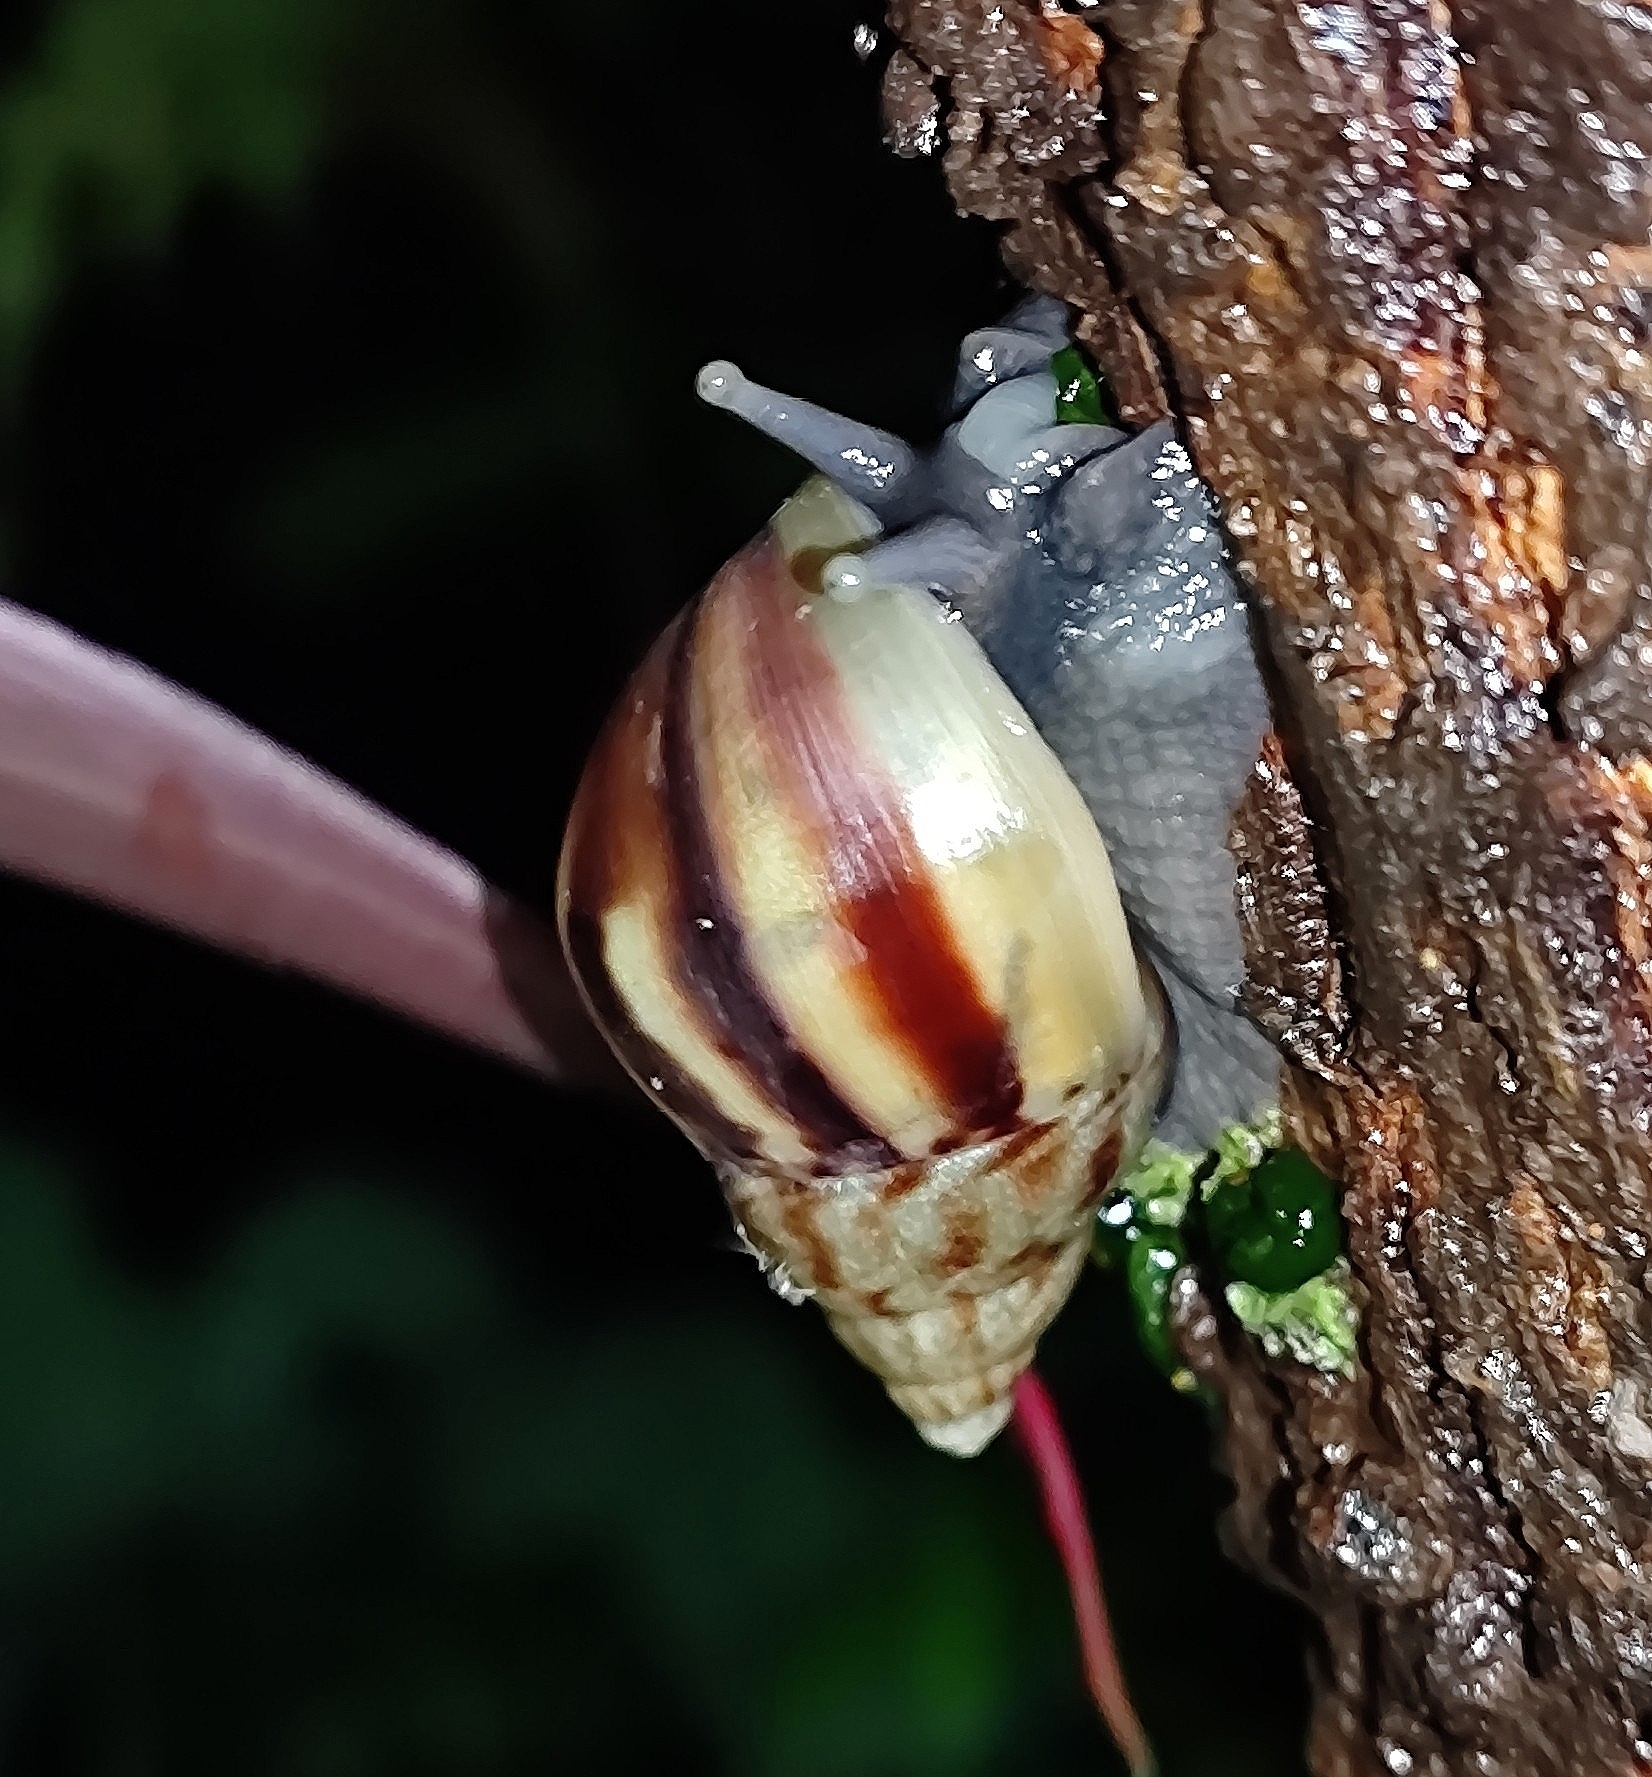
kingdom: Animalia
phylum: Mollusca
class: Gastropoda
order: Stylommatophora
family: Achatinidae
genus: Lissachatina
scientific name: Lissachatina fulica
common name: Giant african snail
